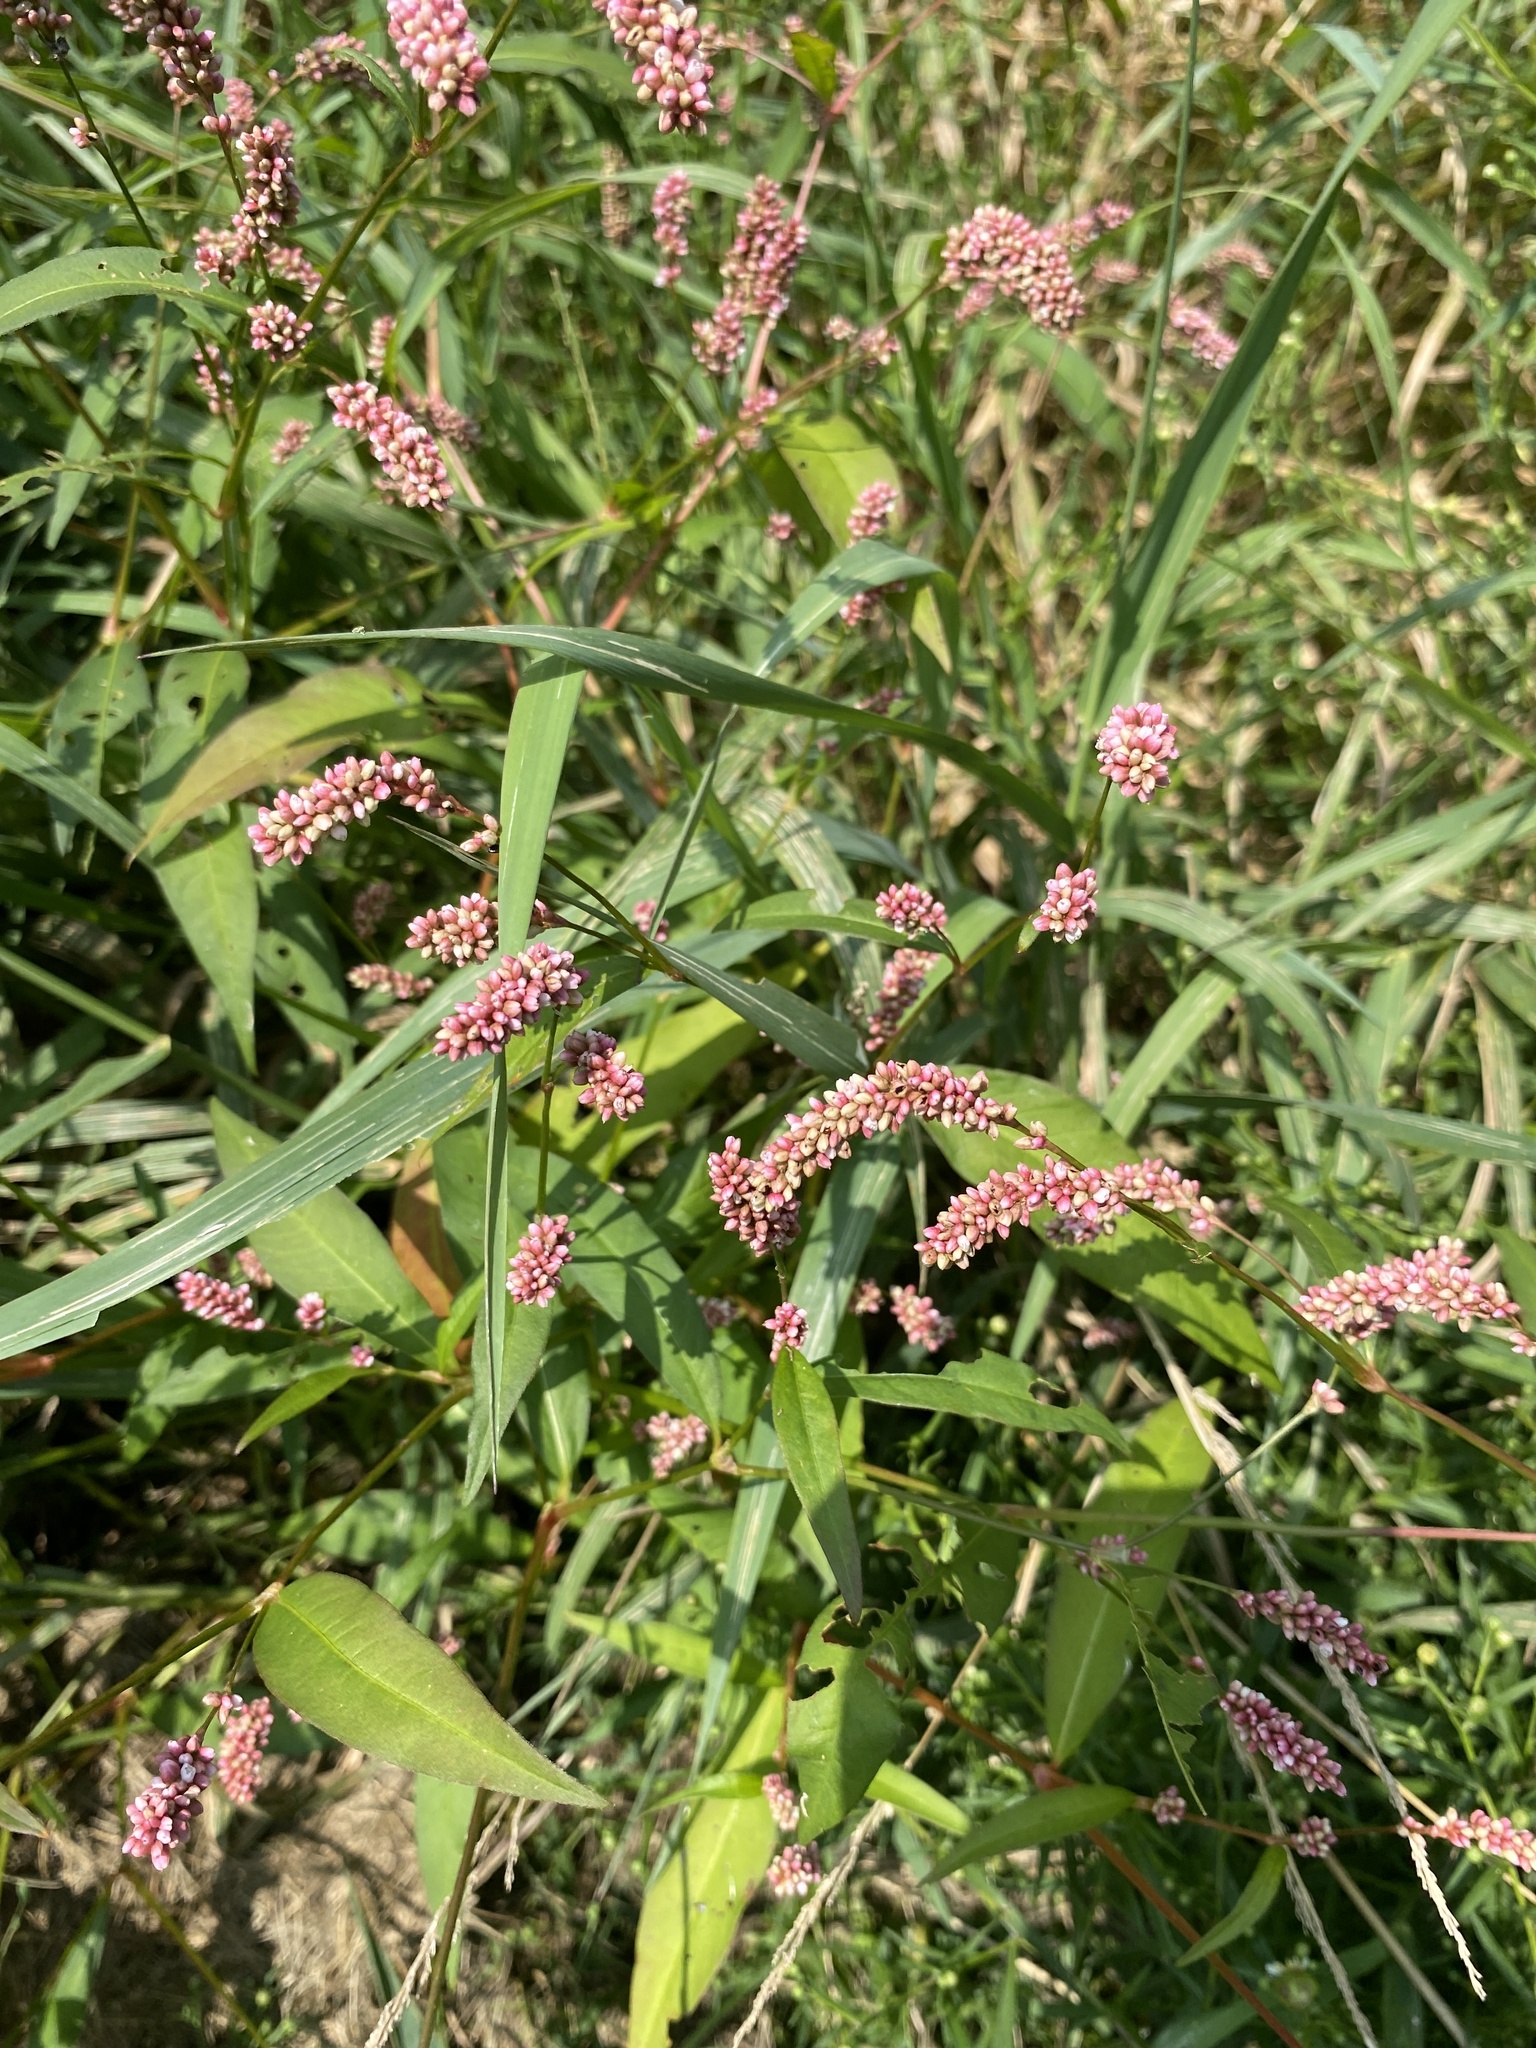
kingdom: Plantae
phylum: Tracheophyta
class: Magnoliopsida
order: Caryophyllales
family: Polygonaceae
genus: Persicaria
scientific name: Persicaria maculosa
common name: Redshank
